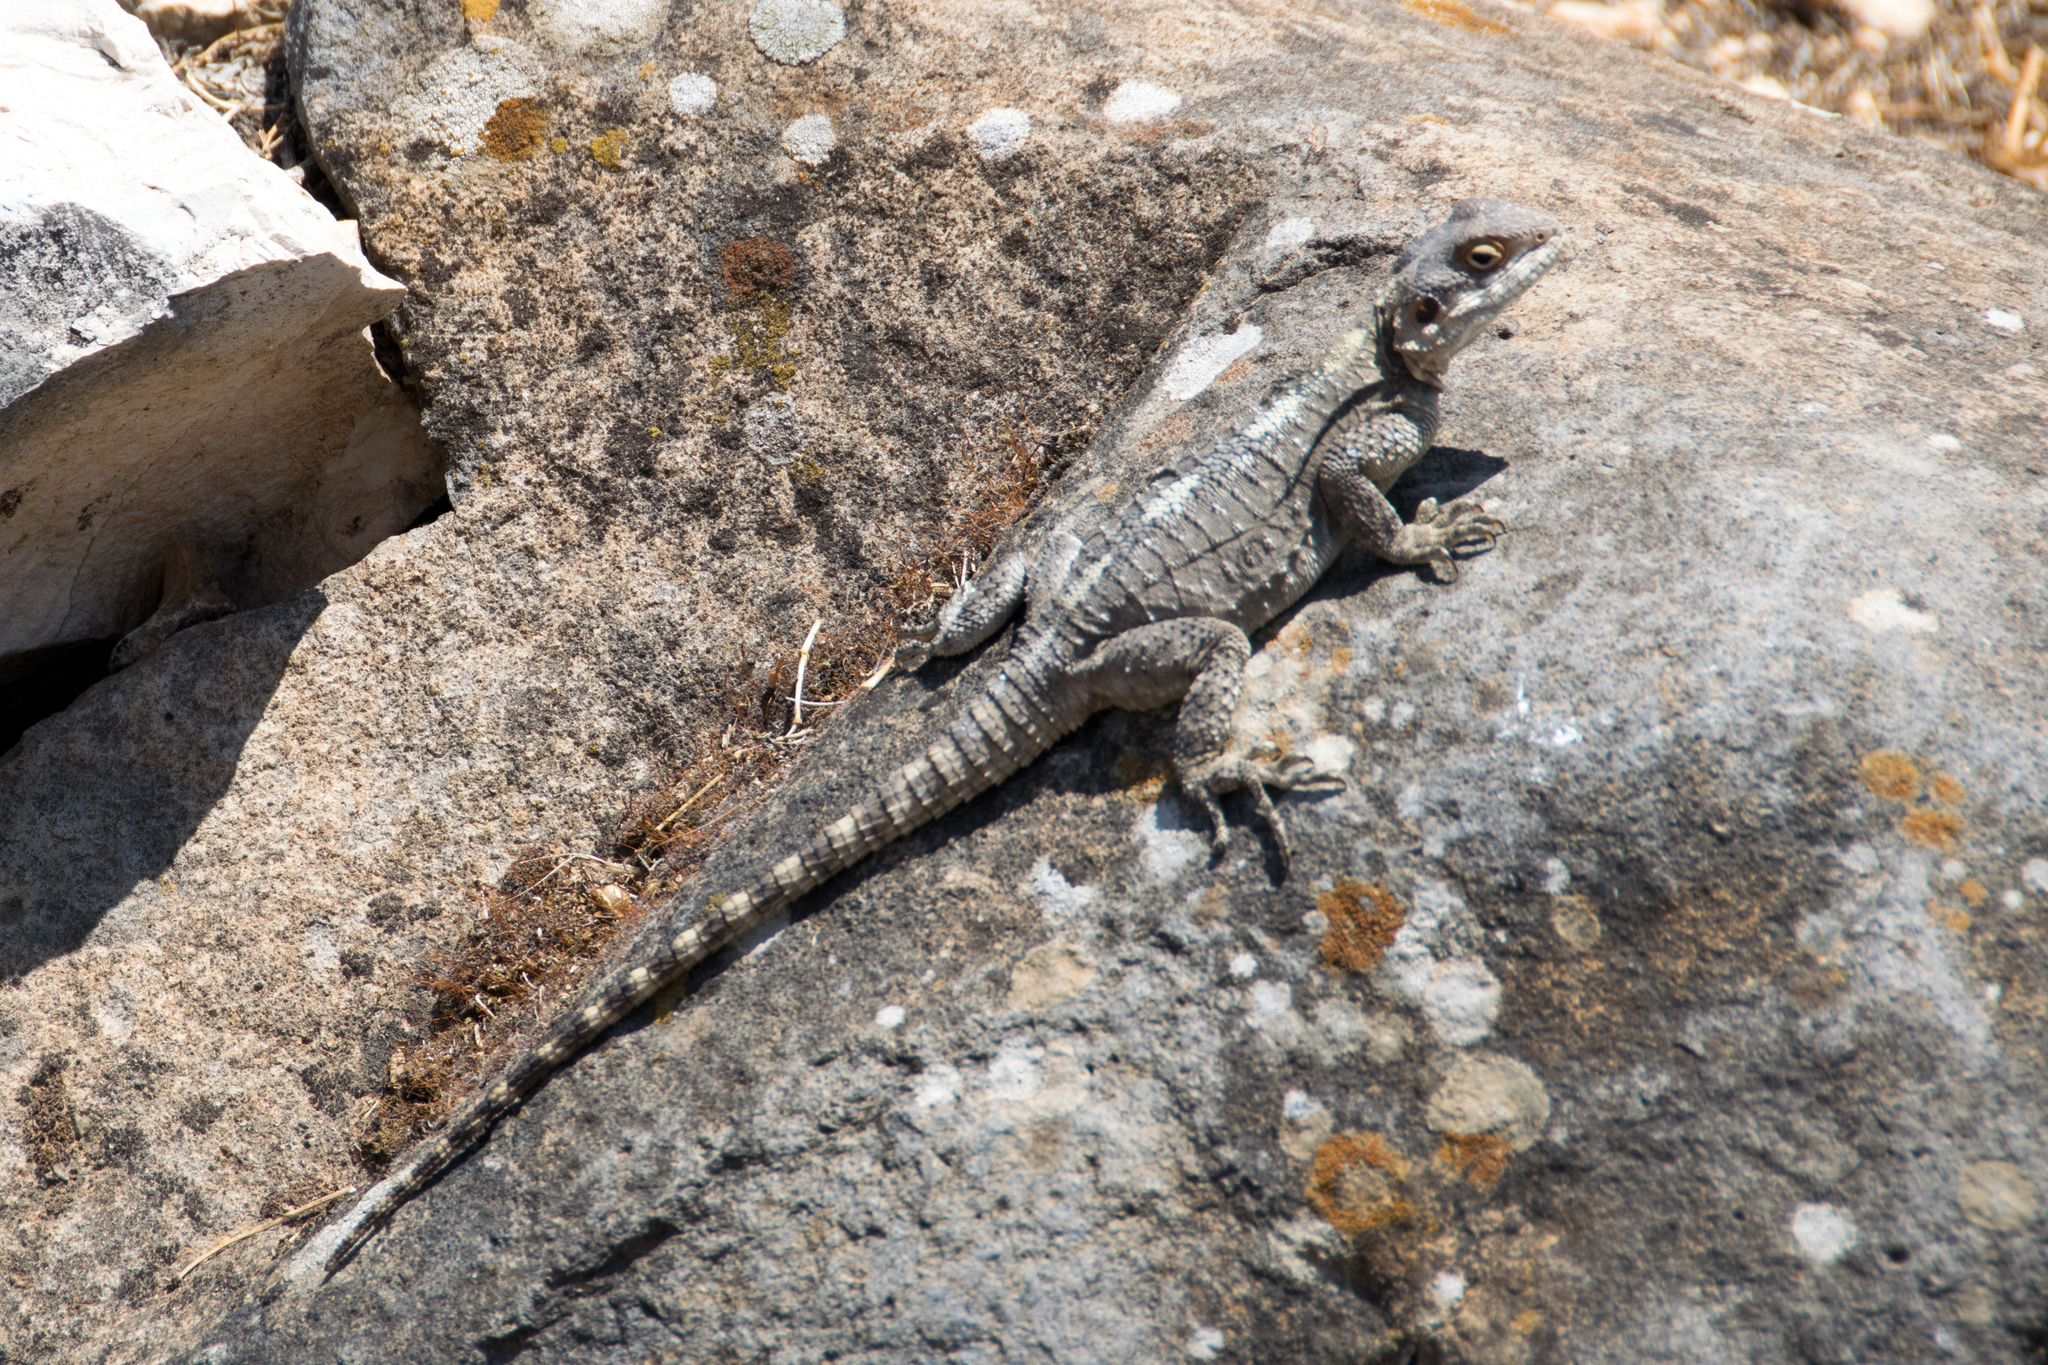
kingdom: Animalia
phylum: Chordata
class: Squamata
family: Agamidae
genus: Laudakia
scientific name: Laudakia vulgaris
